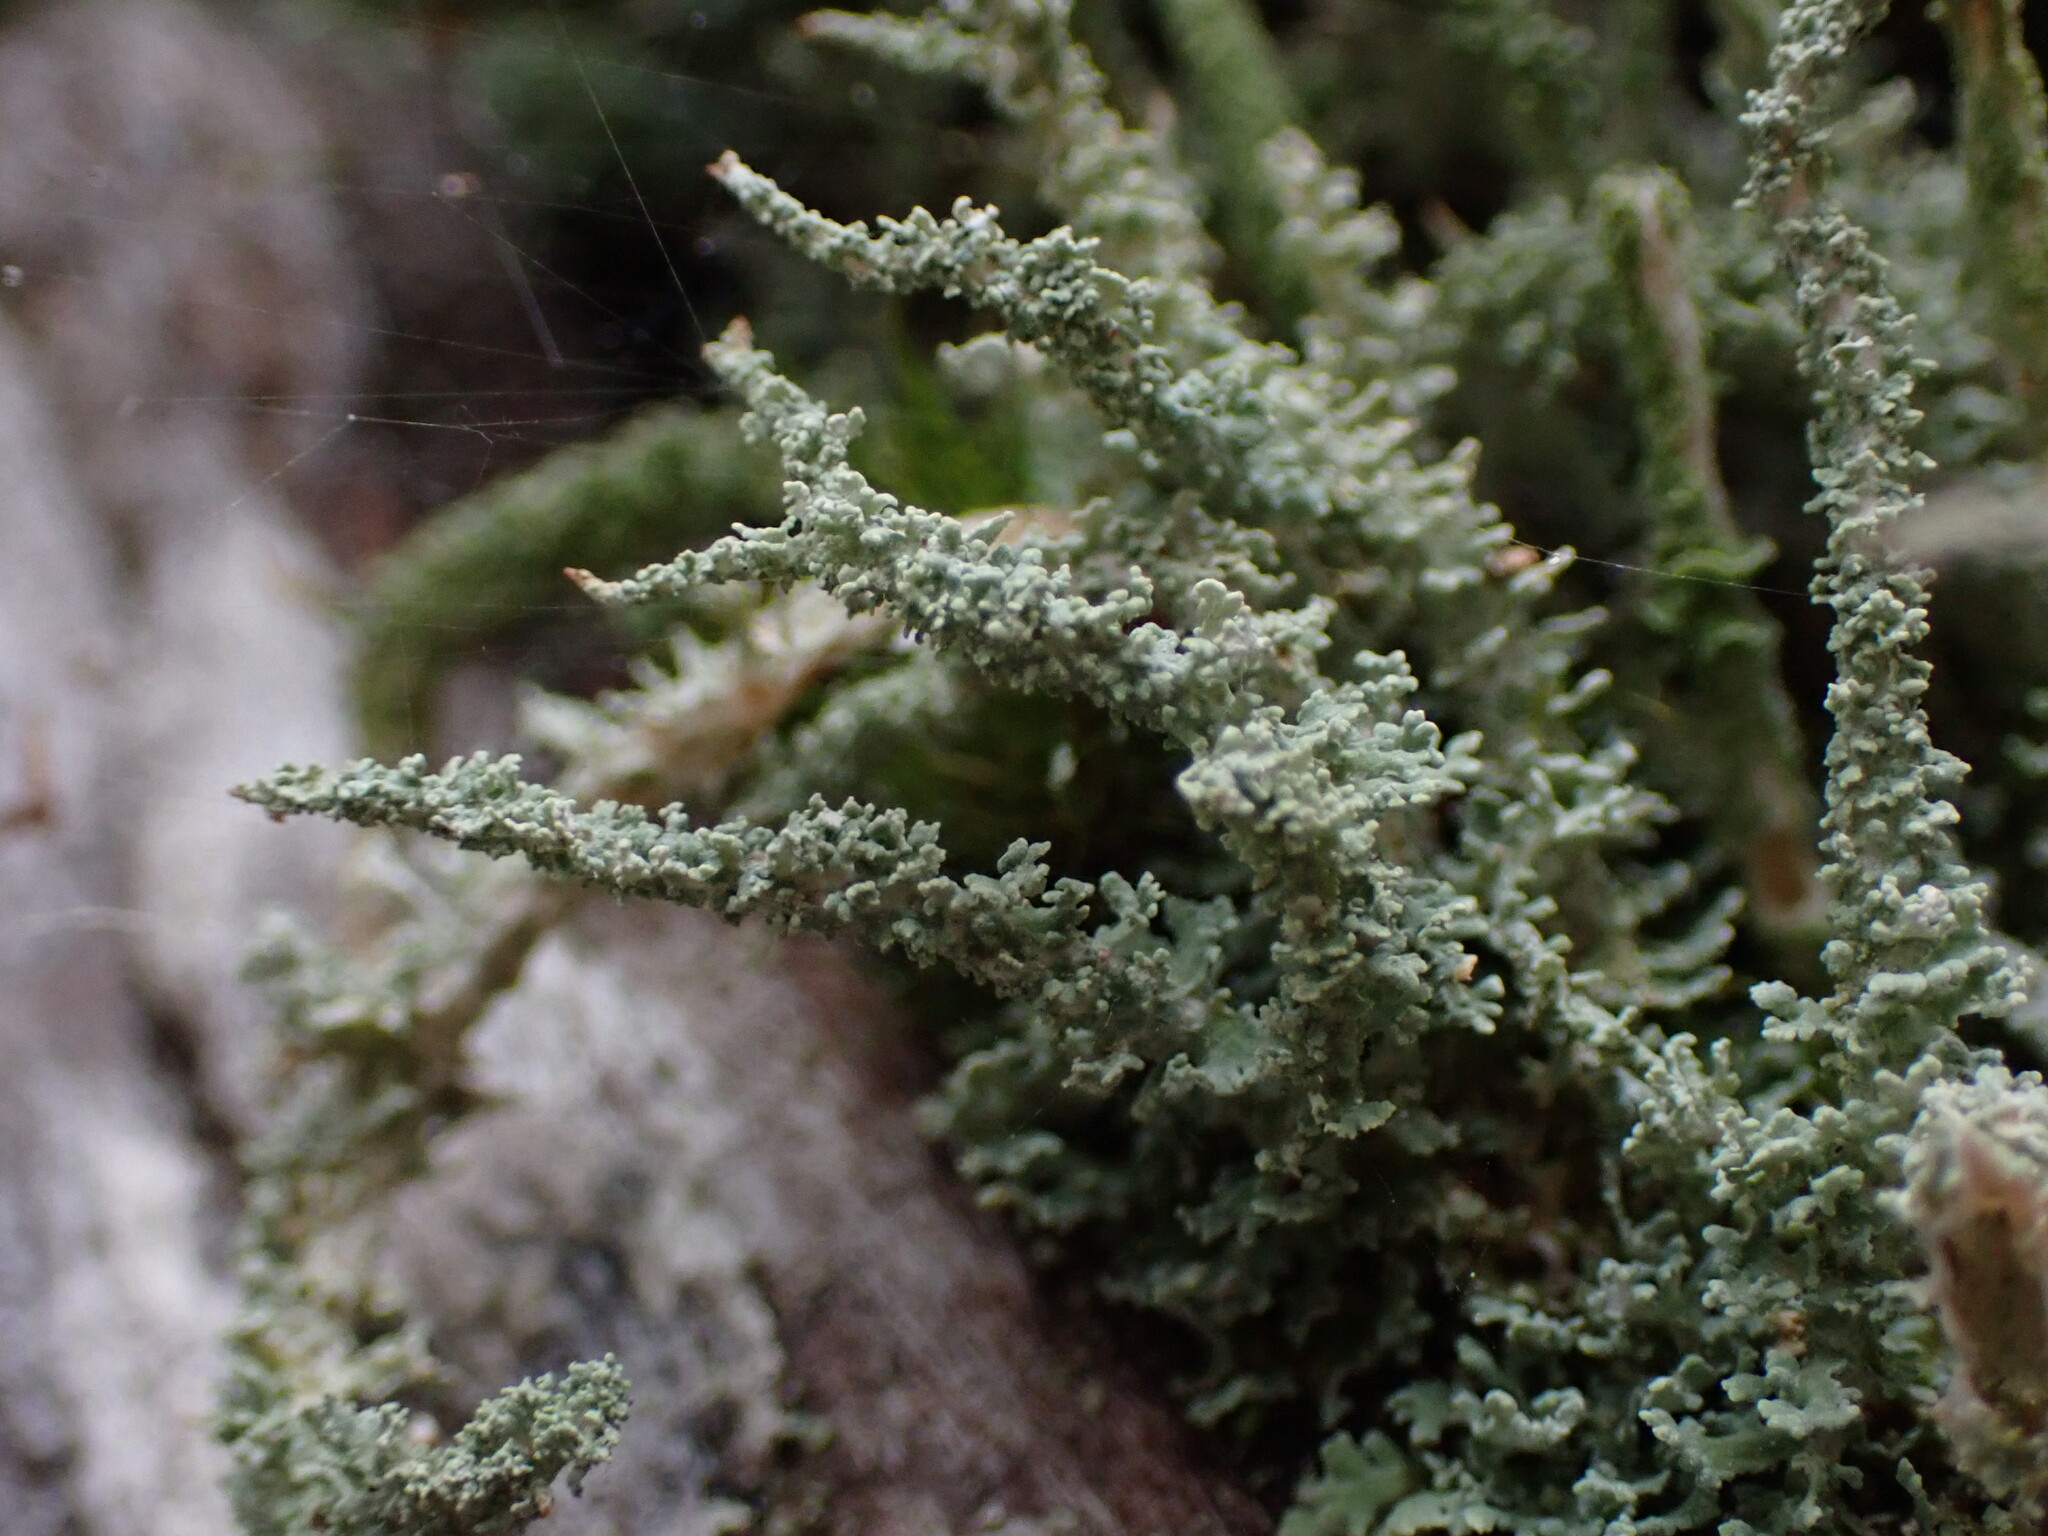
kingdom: Fungi
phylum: Ascomycota
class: Lecanoromycetes
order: Lecanorales
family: Cladoniaceae
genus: Cladonia
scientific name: Cladonia squamosa
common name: Dragon horn
